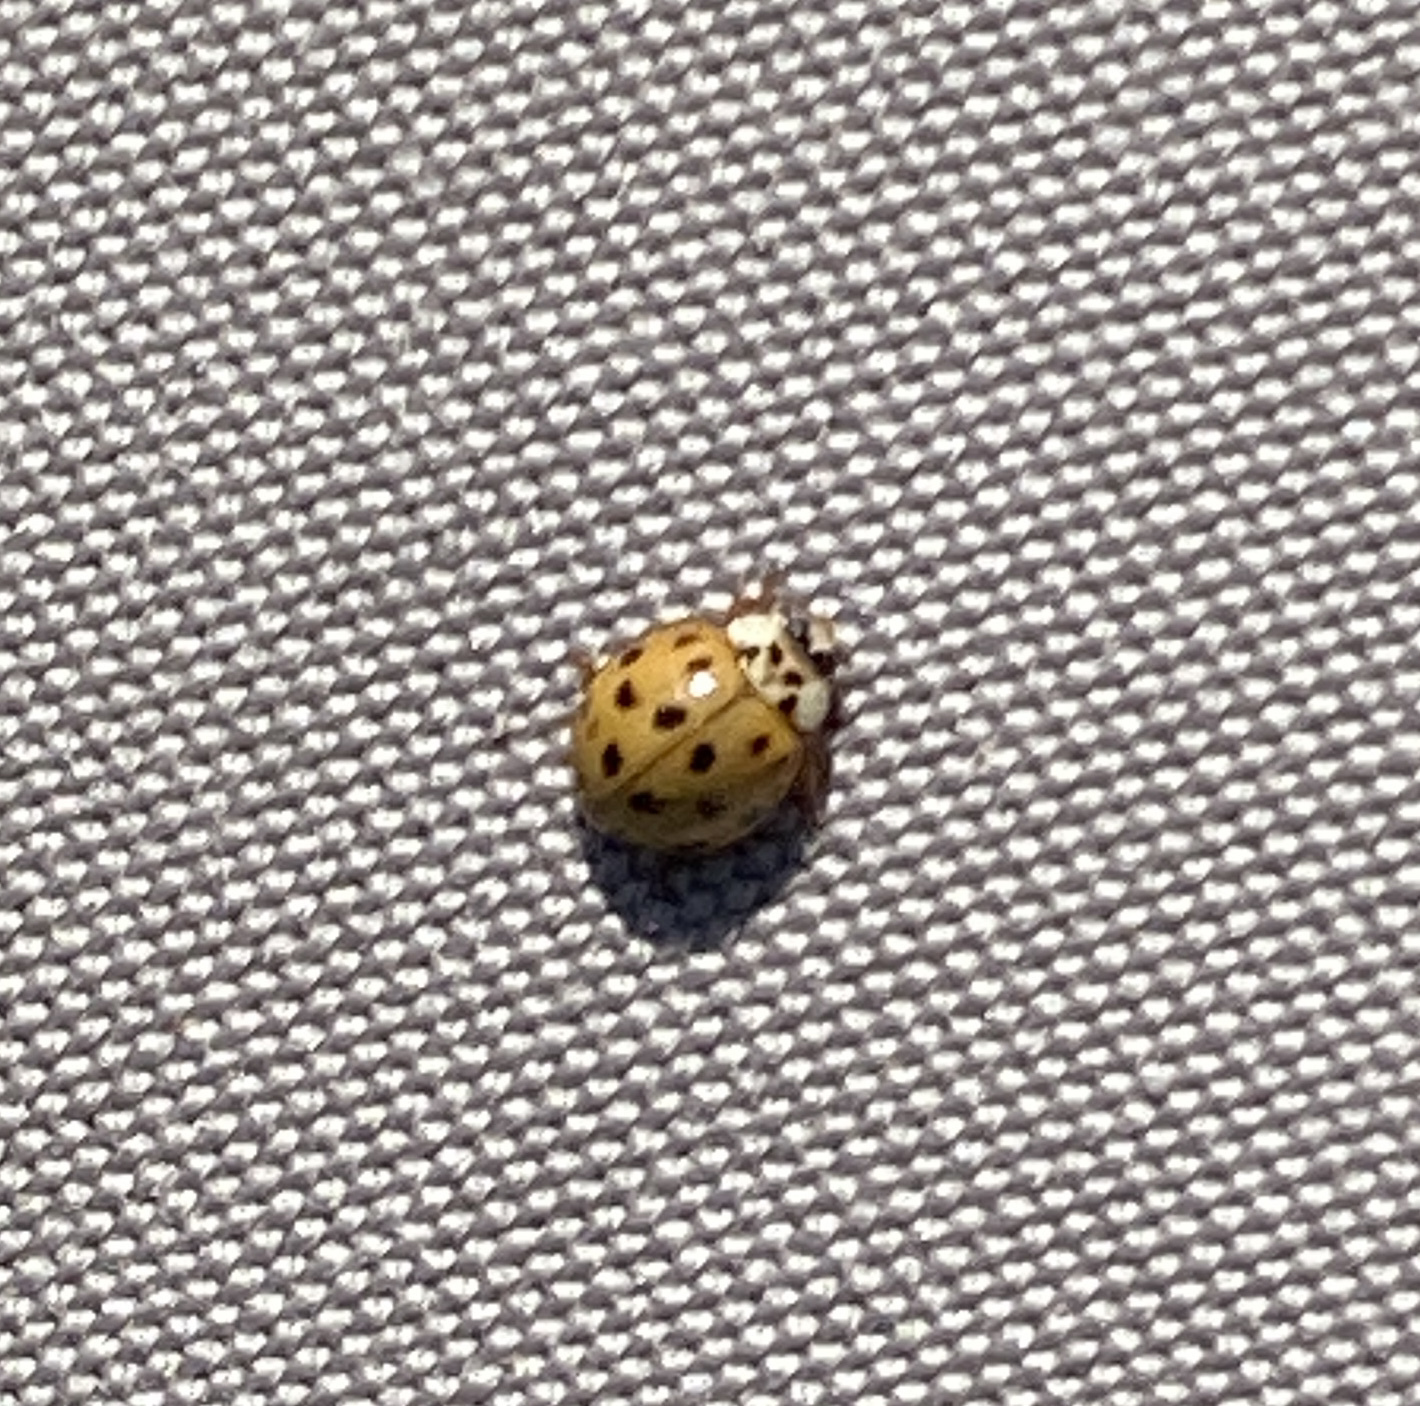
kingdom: Animalia
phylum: Arthropoda
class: Insecta
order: Coleoptera
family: Coccinellidae
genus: Harmonia
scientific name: Harmonia axyridis
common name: Harlequin ladybird
